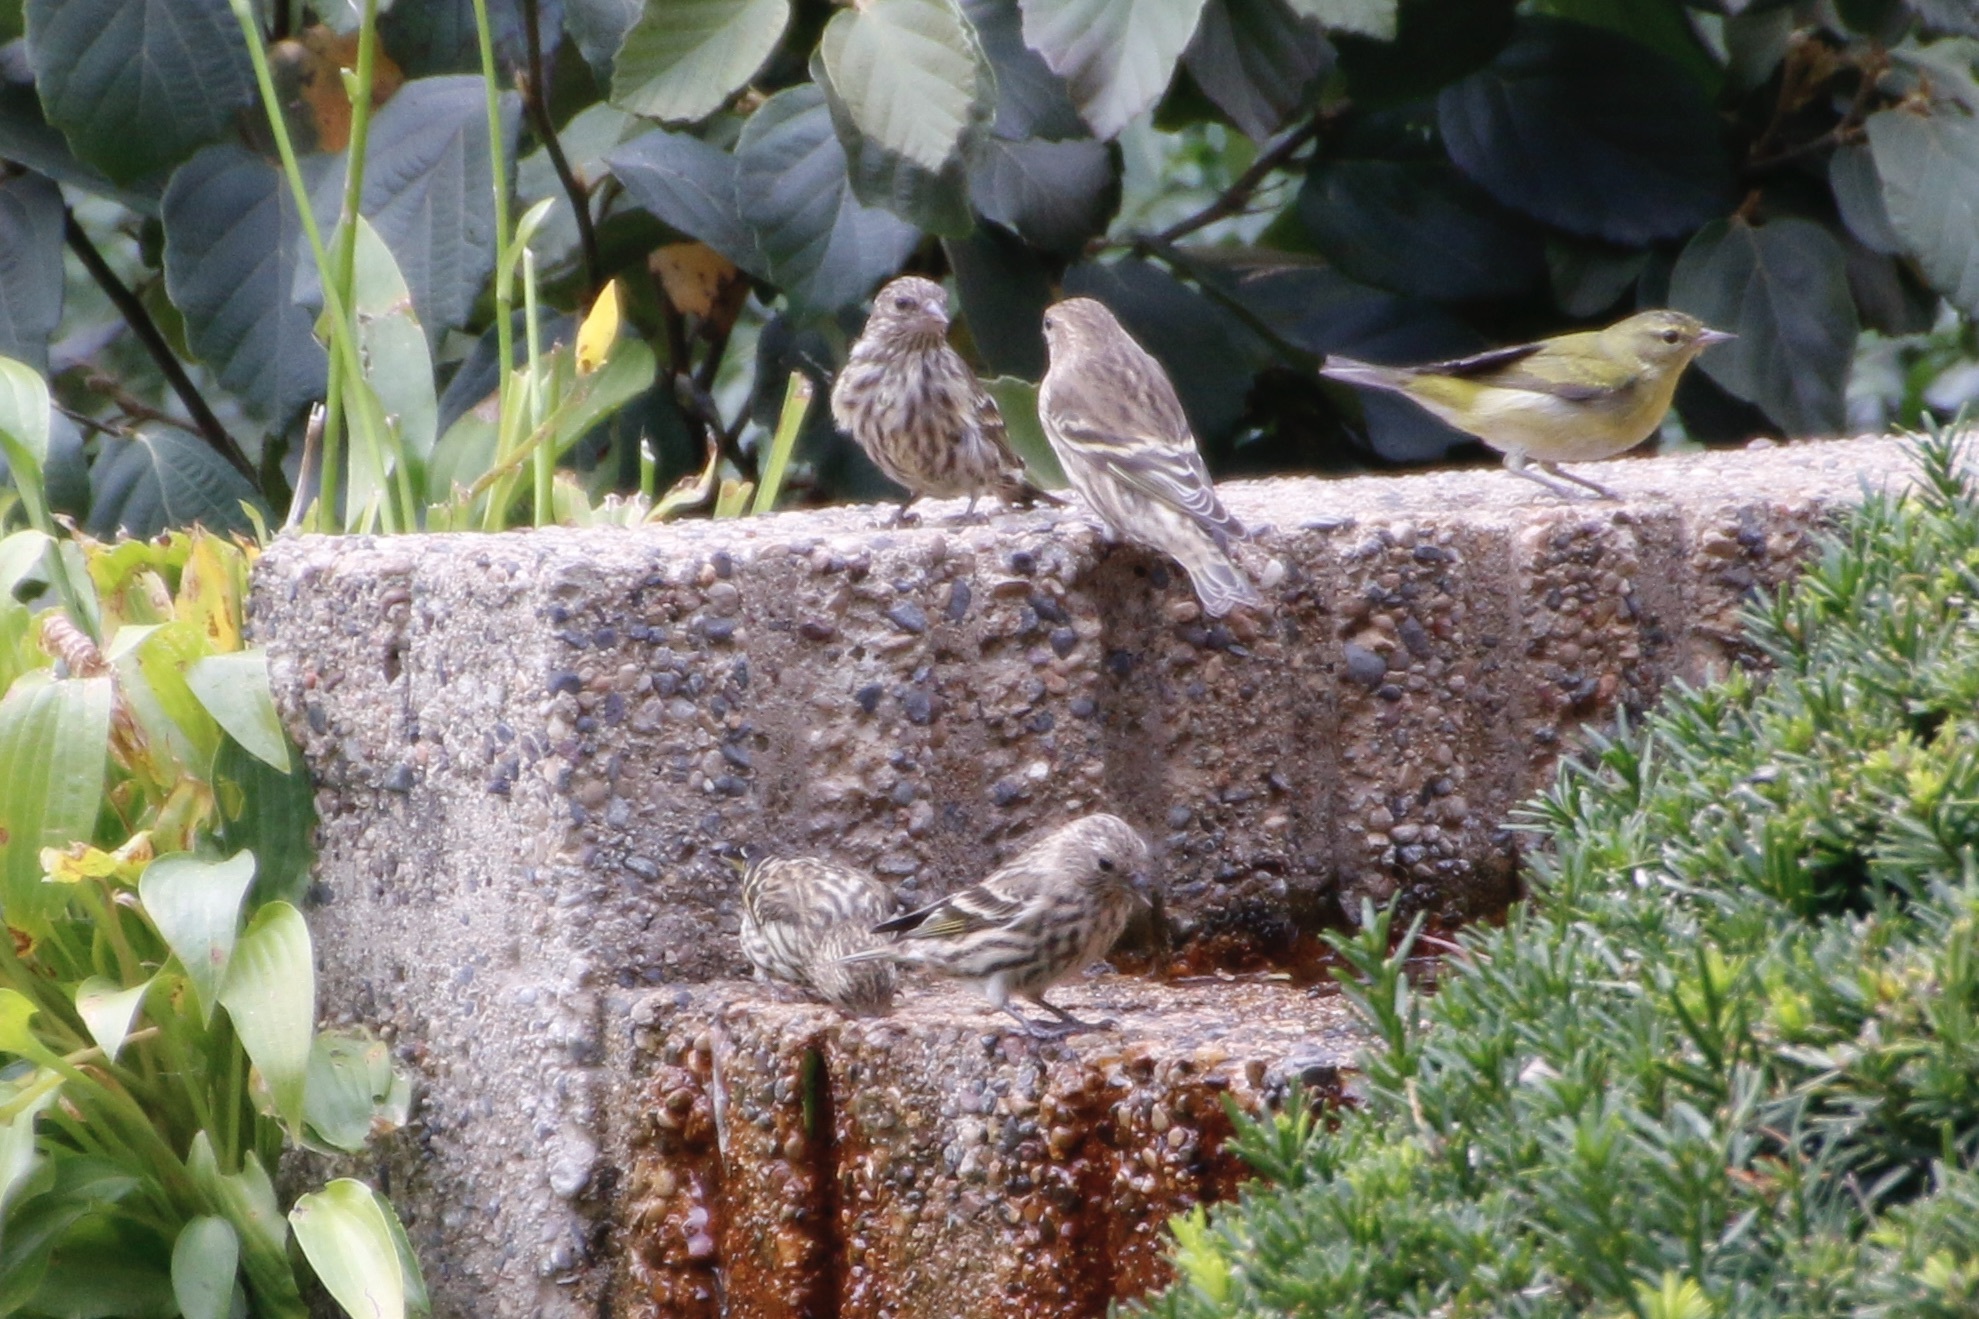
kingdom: Animalia
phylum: Chordata
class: Aves
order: Passeriformes
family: Fringillidae
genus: Spinus
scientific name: Spinus pinus
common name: Pine siskin
